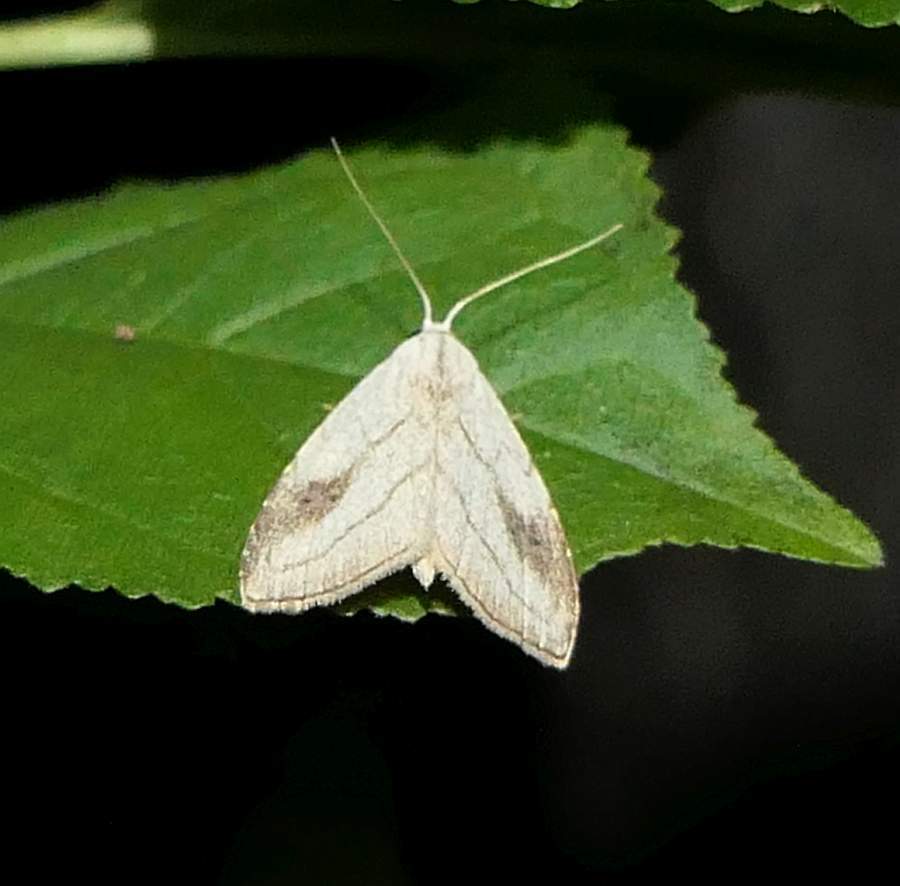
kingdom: Animalia
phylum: Arthropoda
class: Insecta
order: Lepidoptera
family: Erebidae
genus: Rivula
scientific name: Rivula propinqualis
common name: Spotted grass moth
